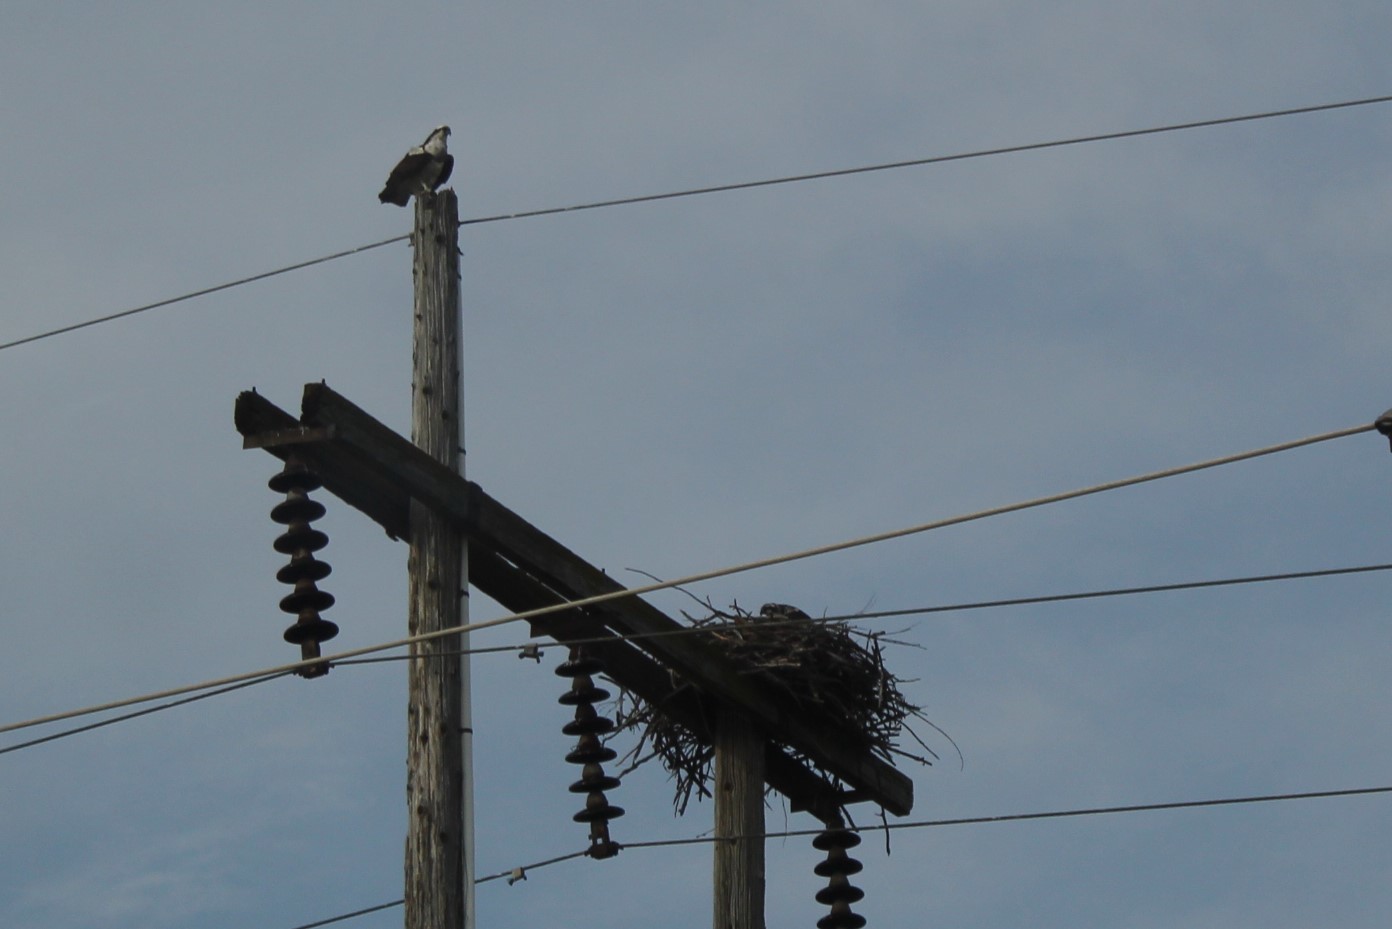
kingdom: Animalia
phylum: Chordata
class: Aves
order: Accipitriformes
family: Pandionidae
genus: Pandion
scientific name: Pandion haliaetus
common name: Osprey
